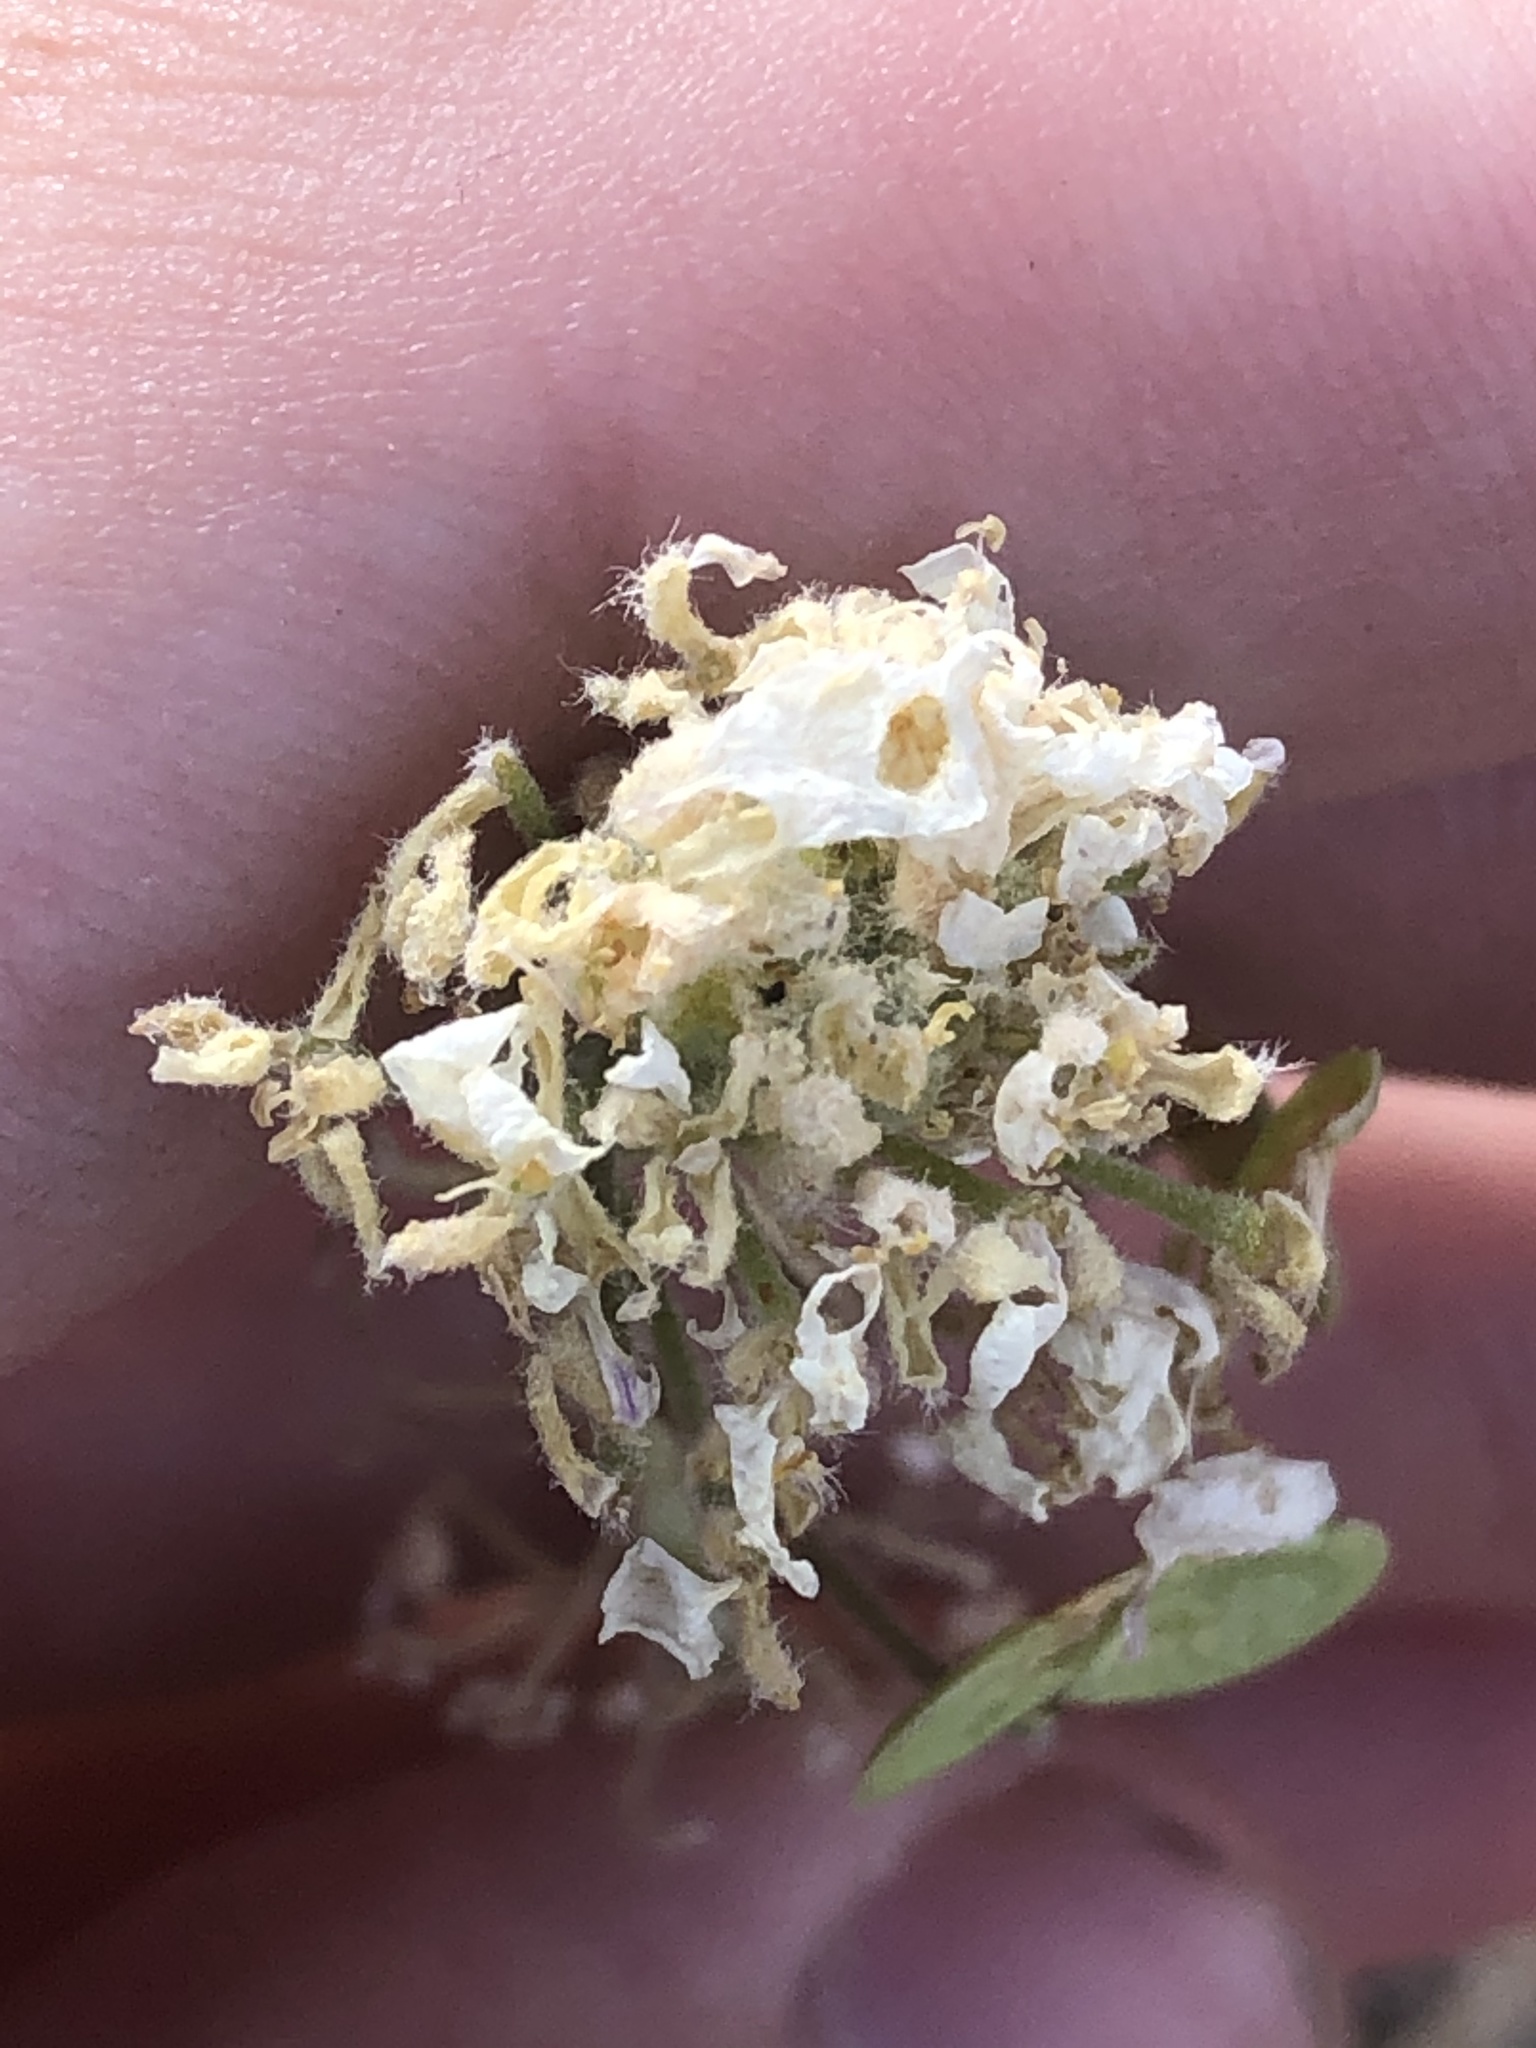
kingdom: Plantae
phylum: Tracheophyta
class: Magnoliopsida
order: Brassicales
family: Brassicaceae
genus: Dimorphocarpa
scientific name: Dimorphocarpa wislizenii
